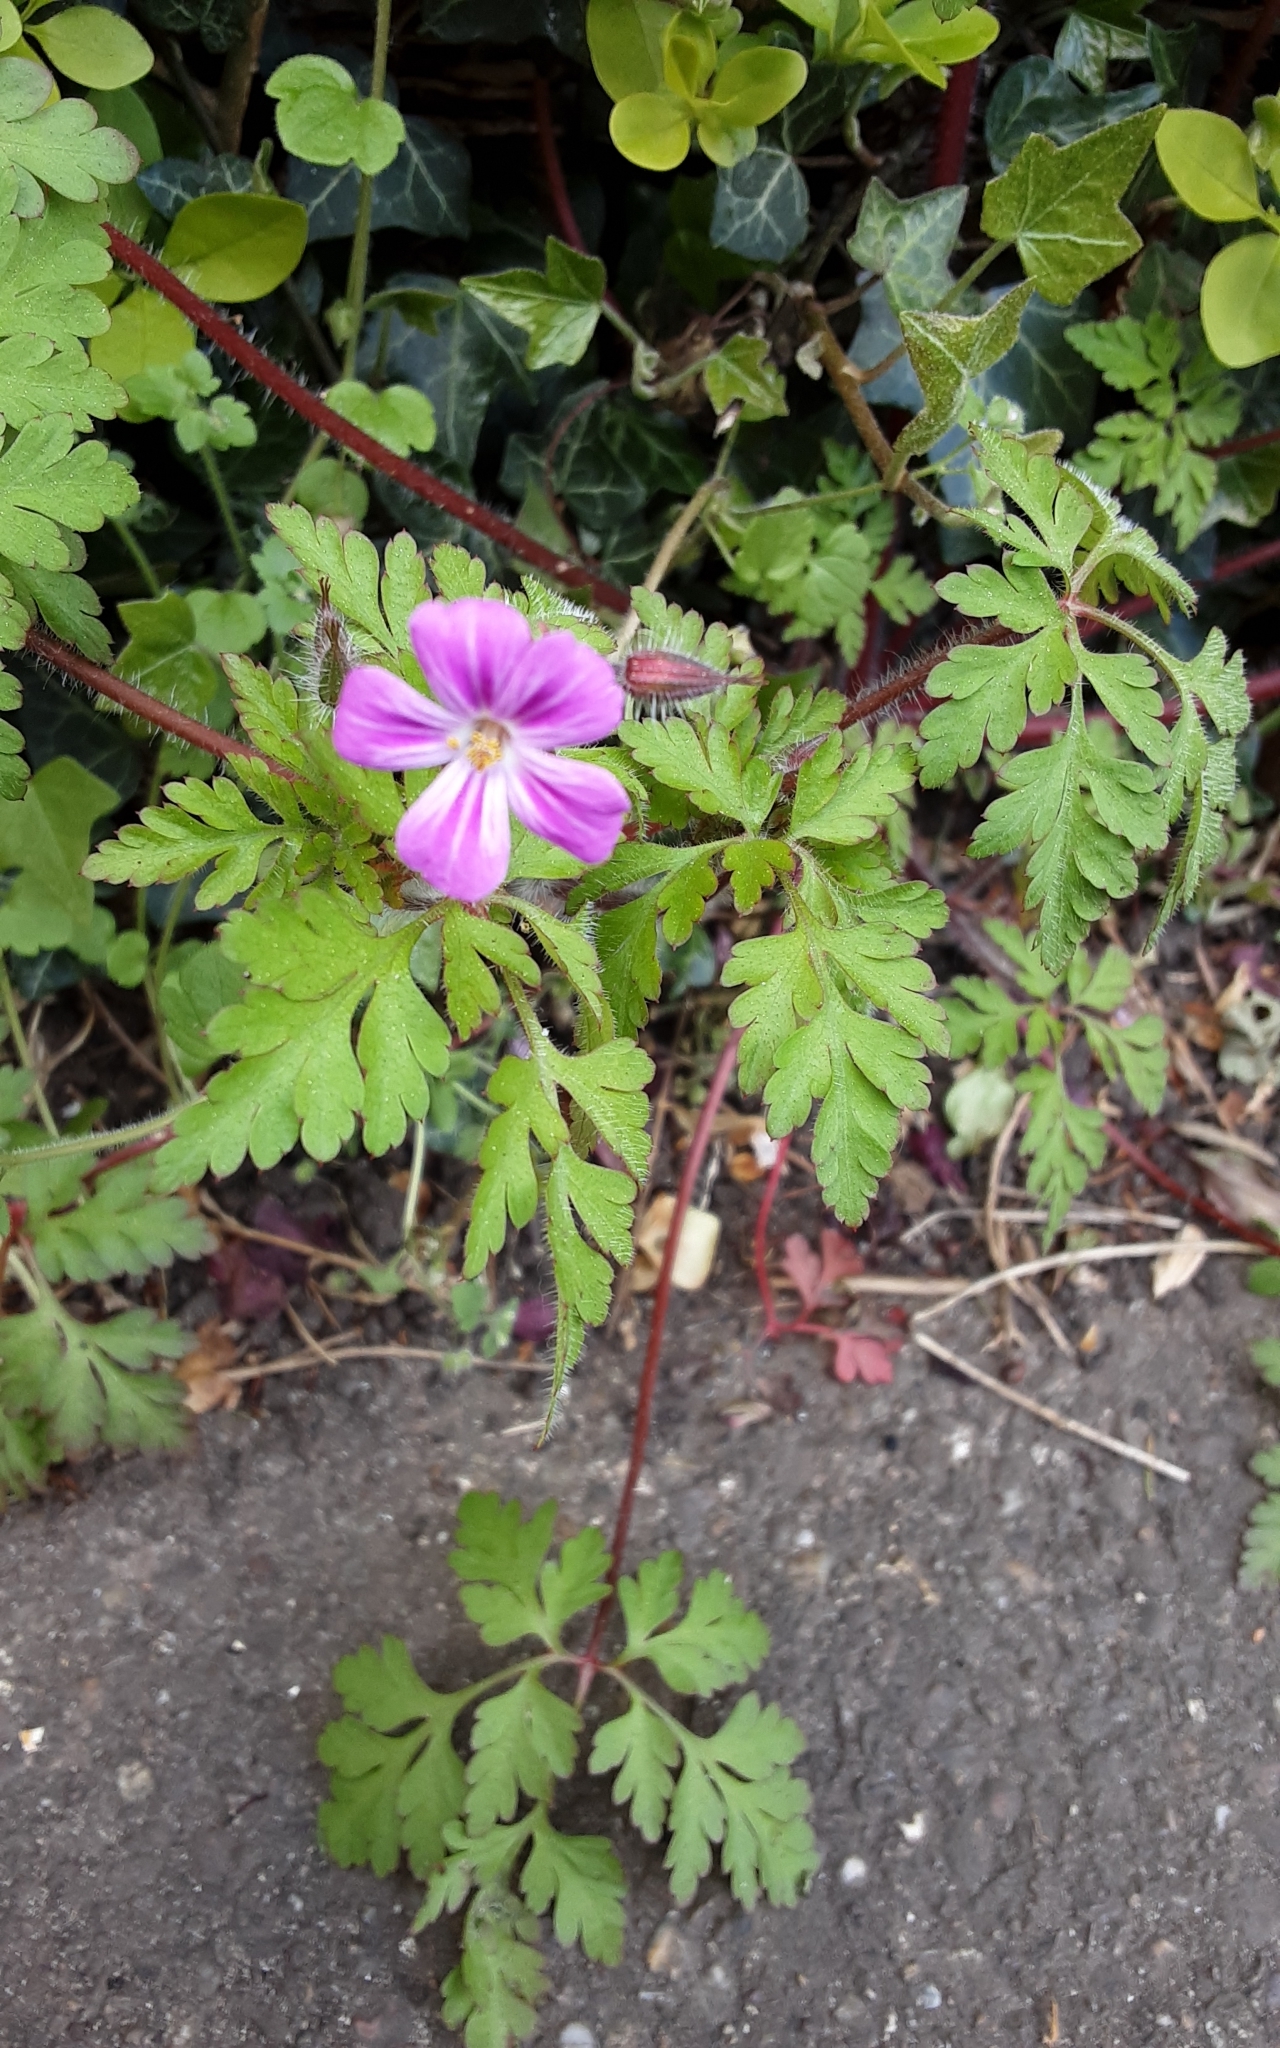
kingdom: Plantae
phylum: Tracheophyta
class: Magnoliopsida
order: Geraniales
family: Geraniaceae
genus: Geranium
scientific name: Geranium robertianum
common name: Herb-robert
